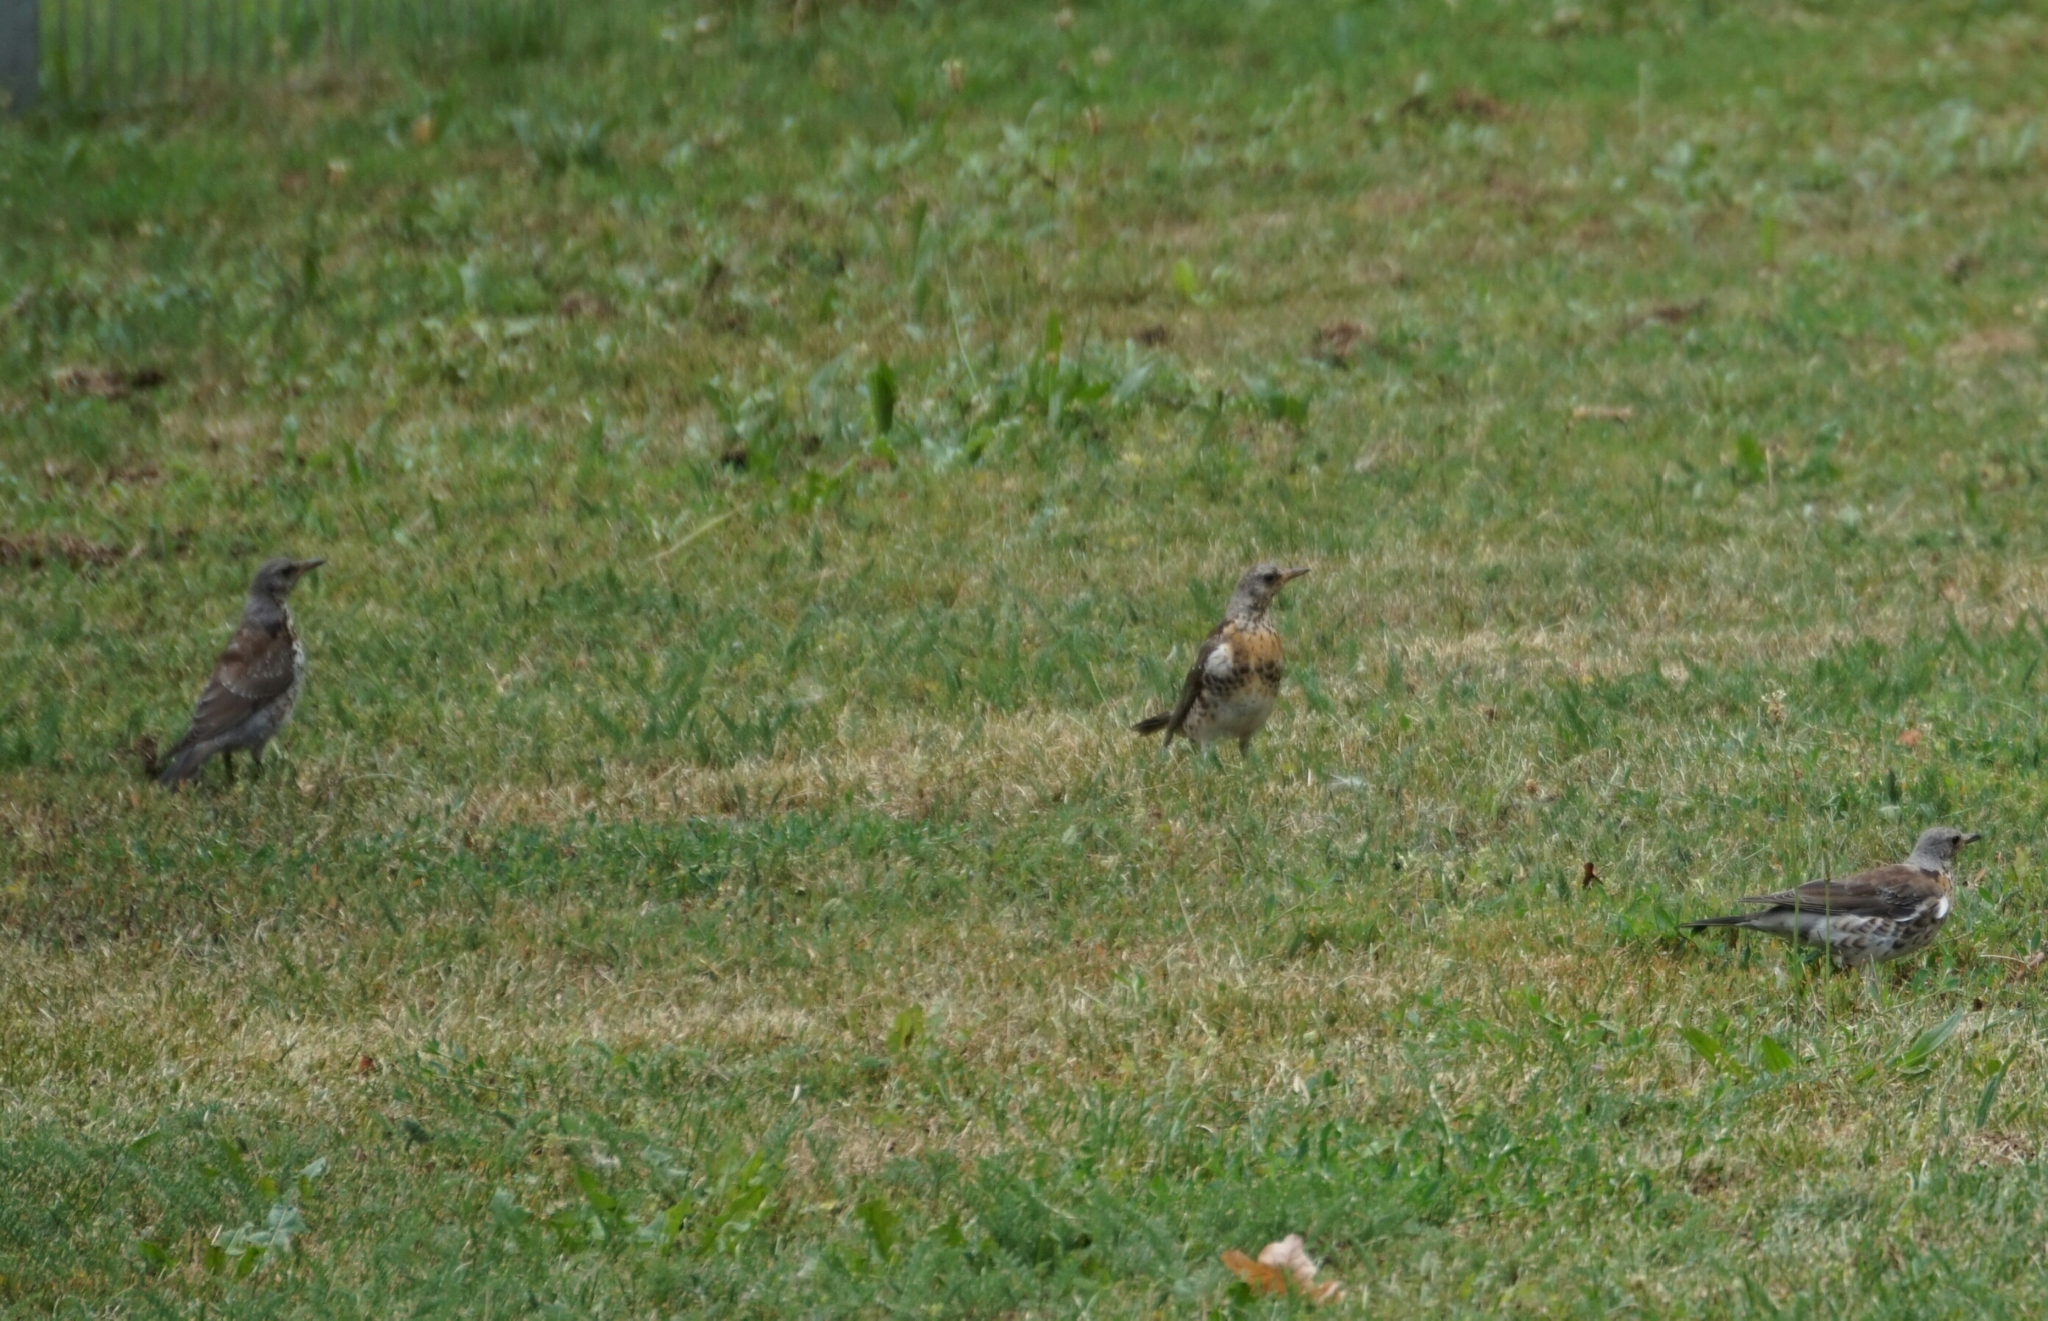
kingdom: Animalia
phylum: Chordata
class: Aves
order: Passeriformes
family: Turdidae
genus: Turdus
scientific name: Turdus pilaris
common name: Fieldfare
